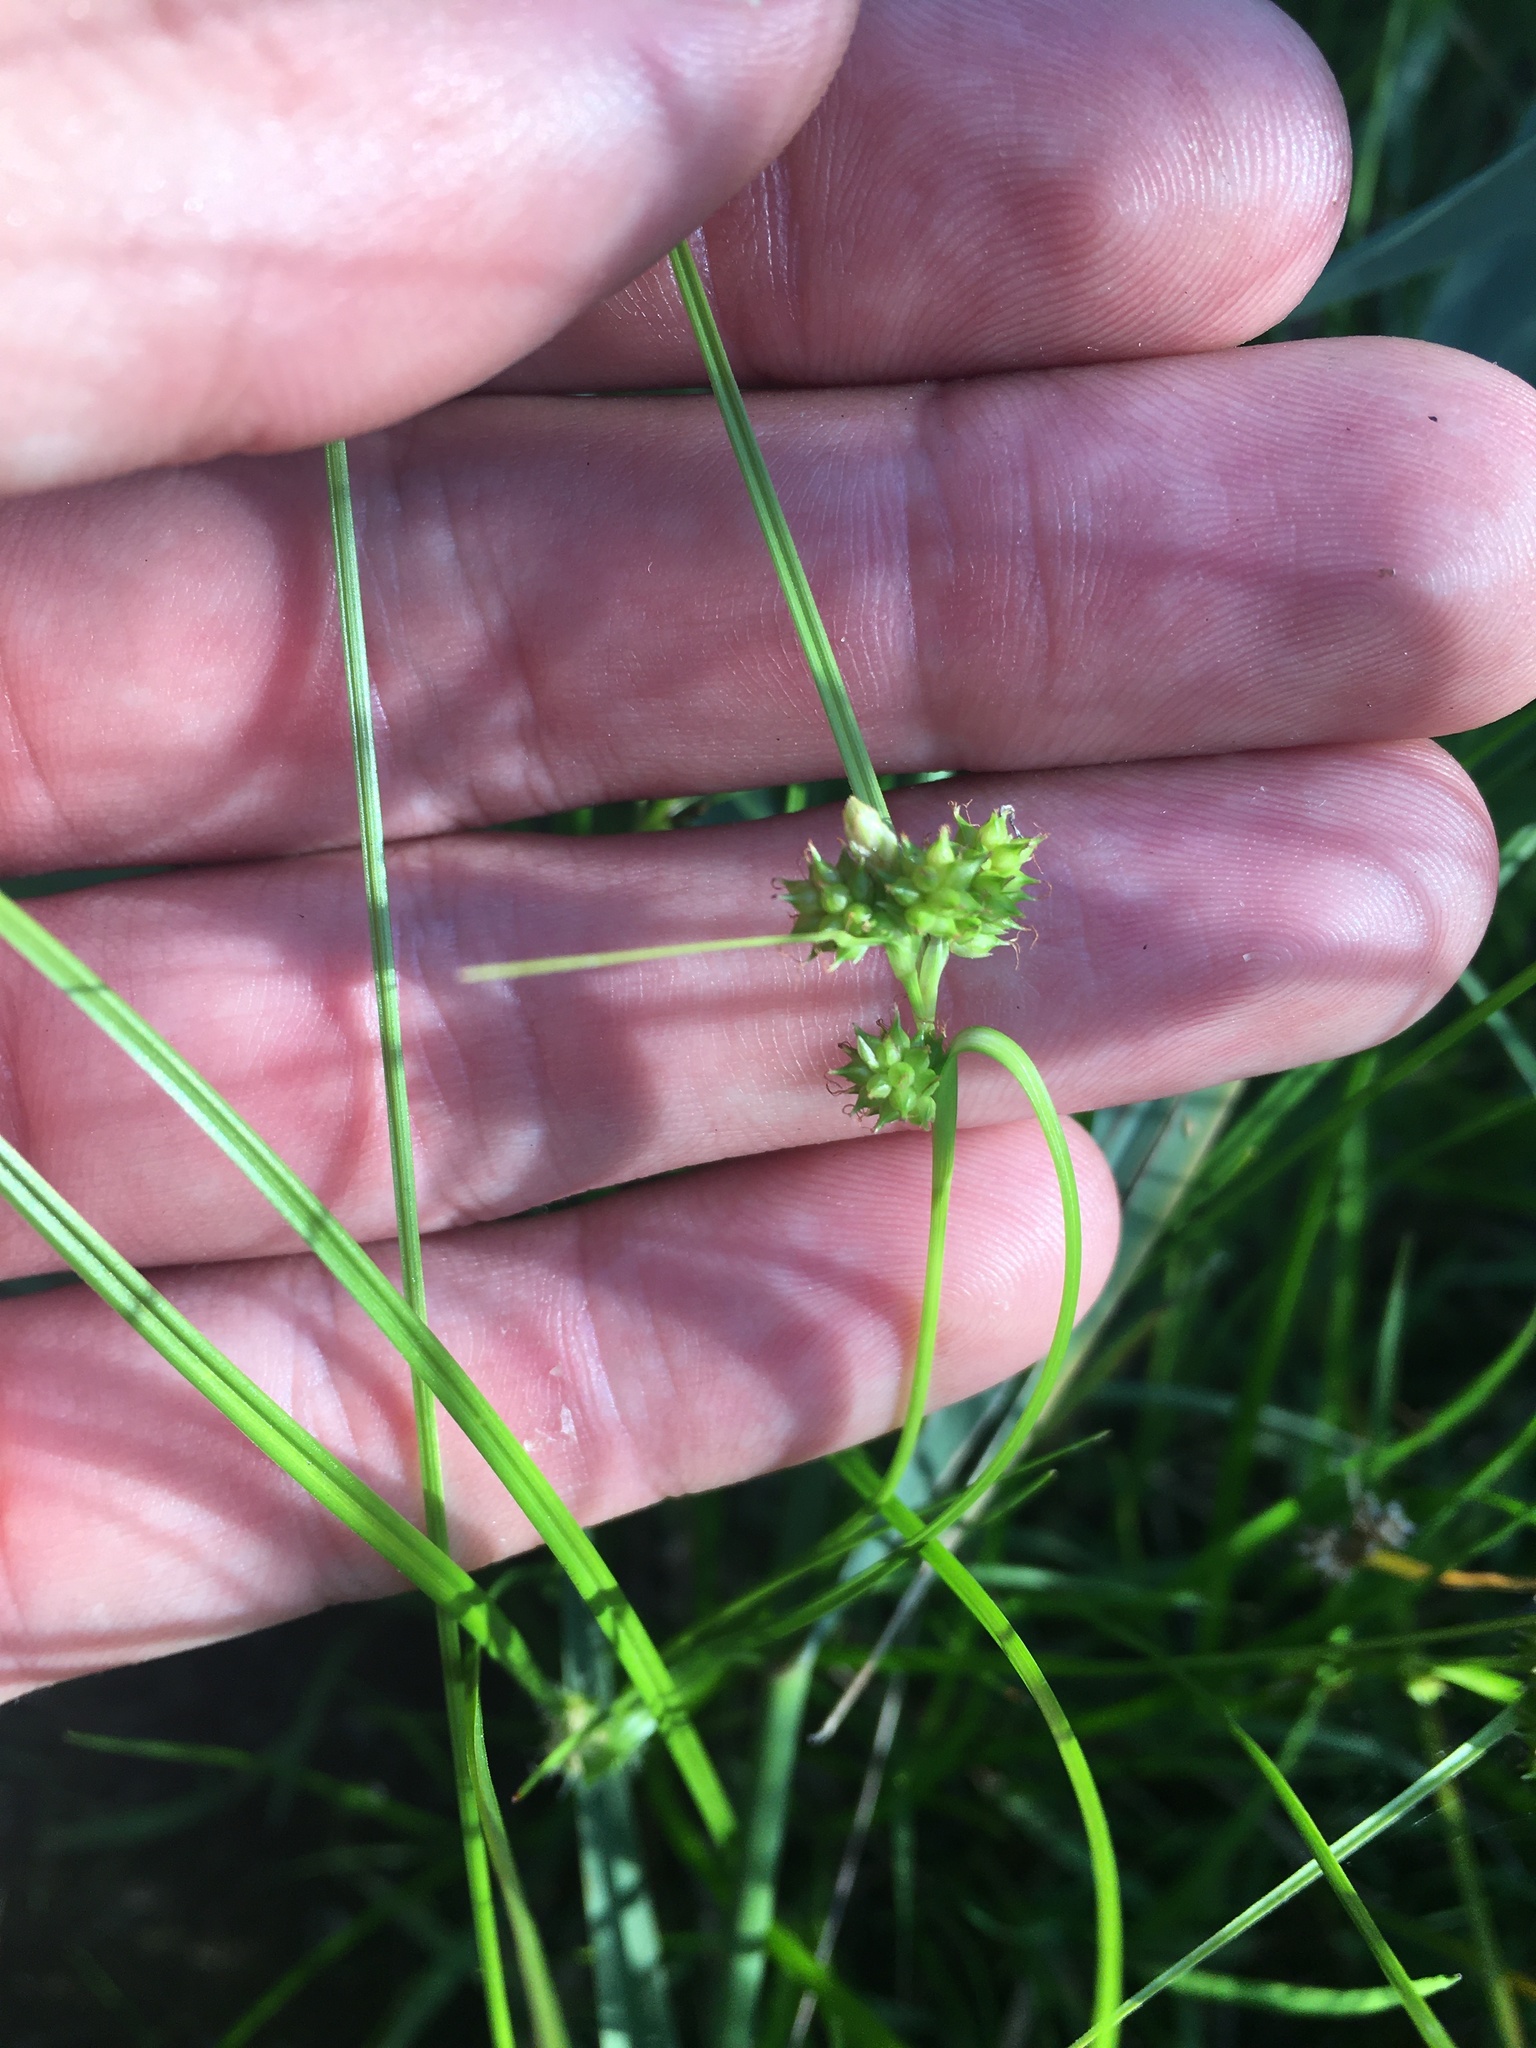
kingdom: Plantae
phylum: Tracheophyta
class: Liliopsida
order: Poales
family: Cyperaceae
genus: Carex
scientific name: Carex
